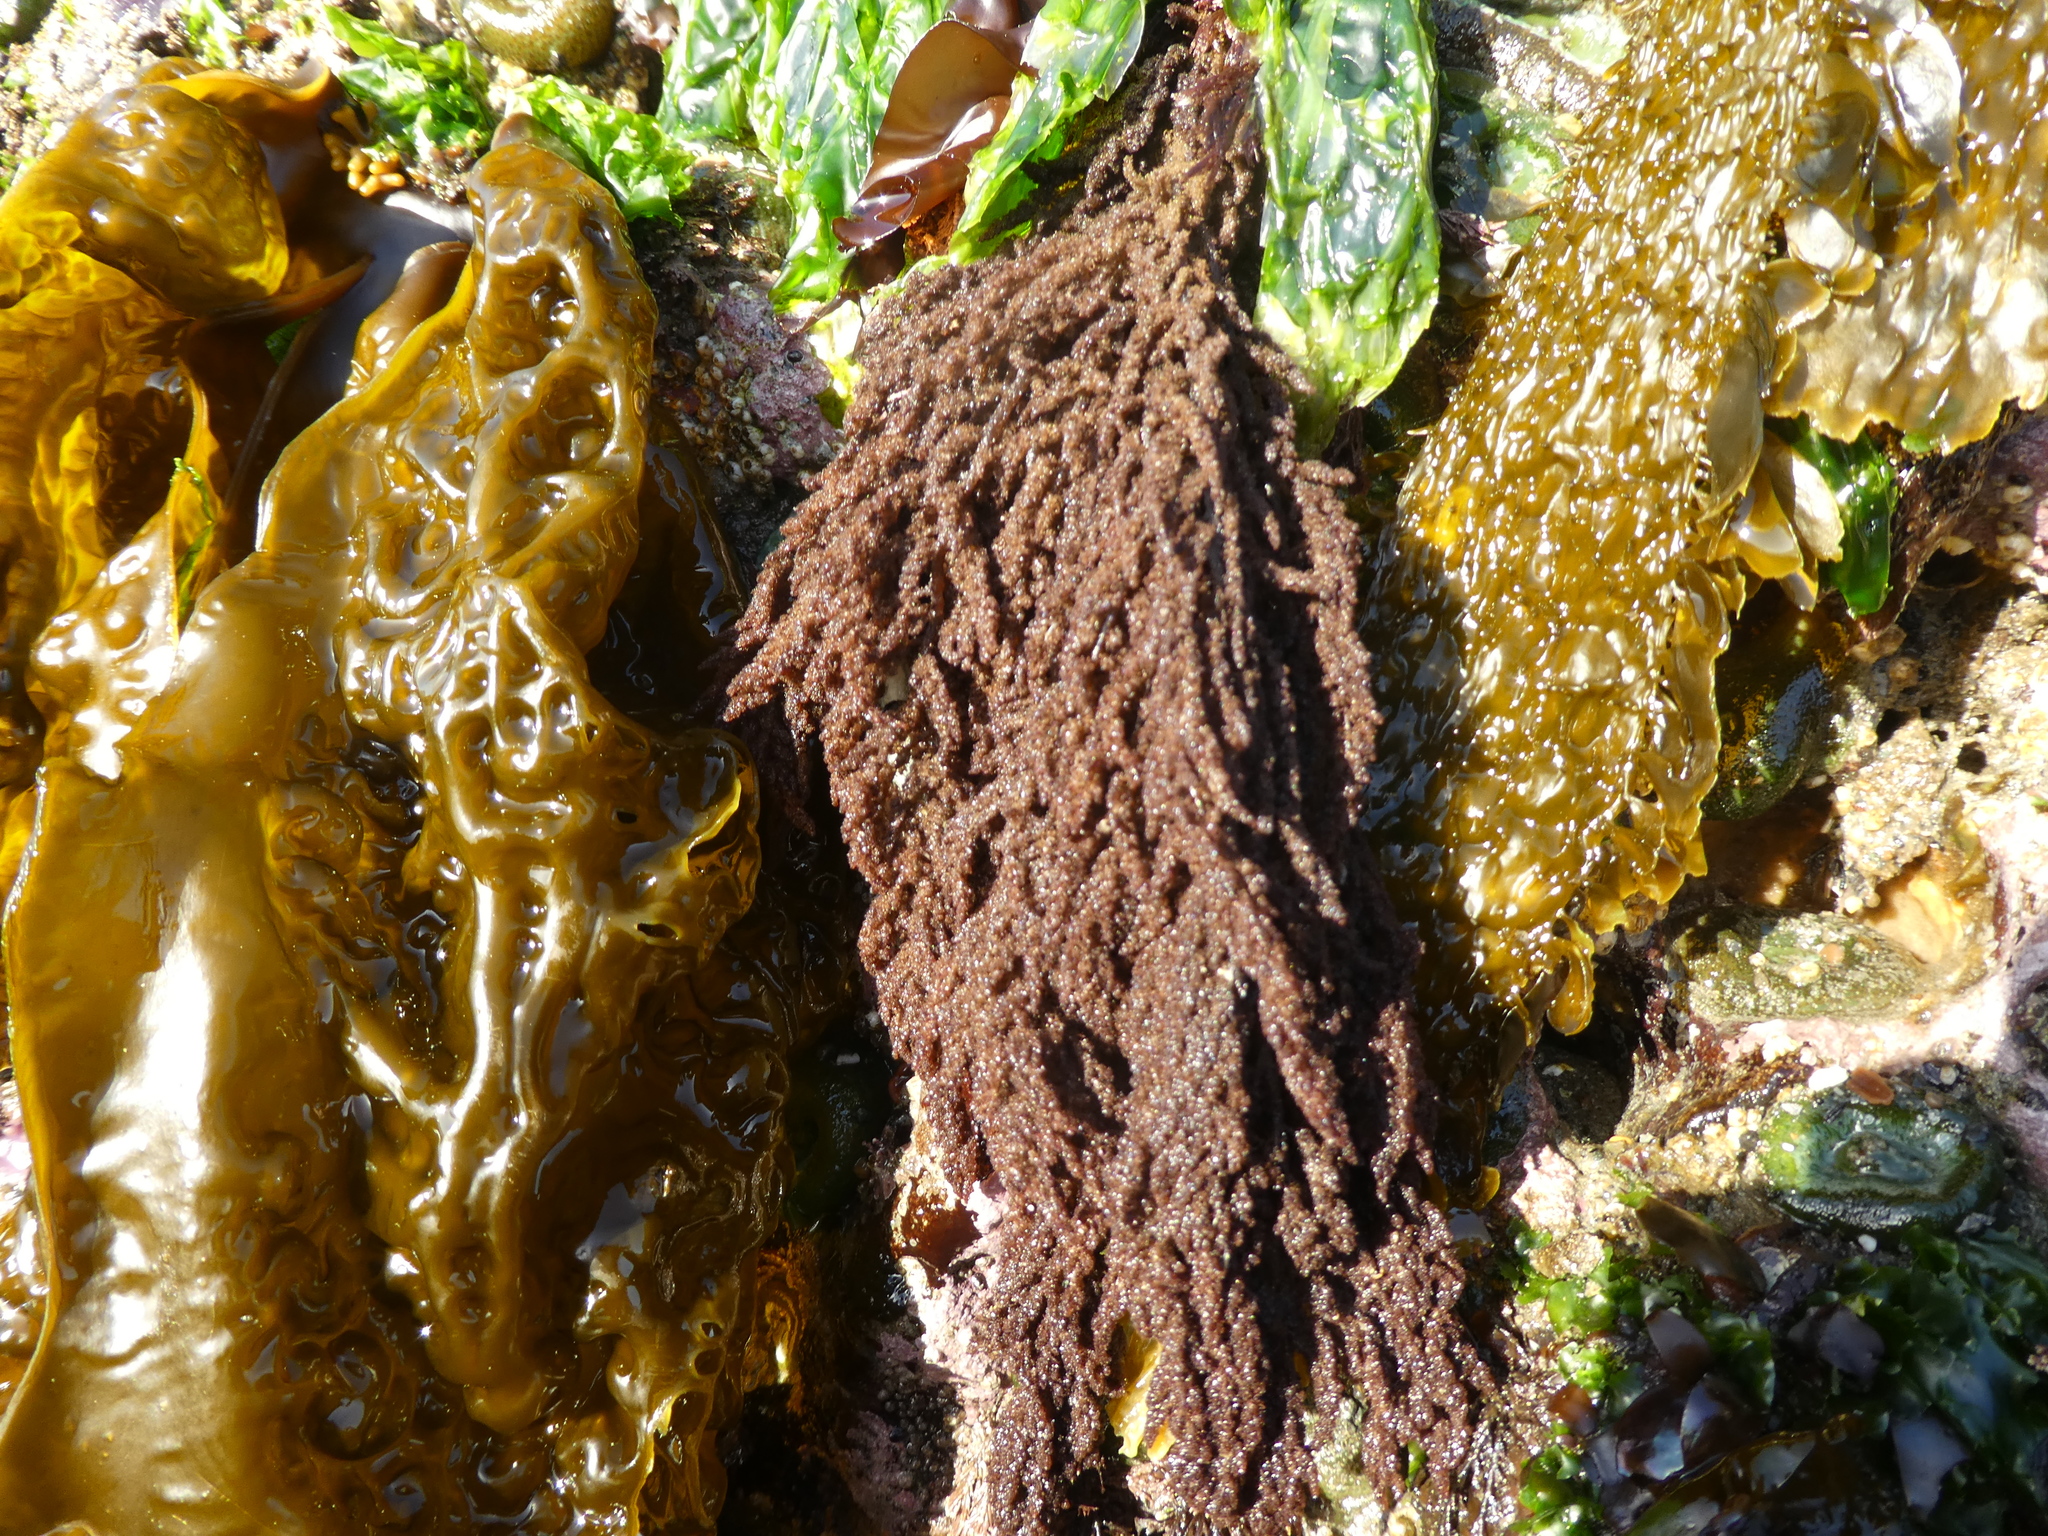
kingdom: Plantae
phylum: Rhodophyta
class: Florideophyceae
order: Ceramiales
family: Callithamniaceae
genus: Callithamnion
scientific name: Callithamnion pikeanum
